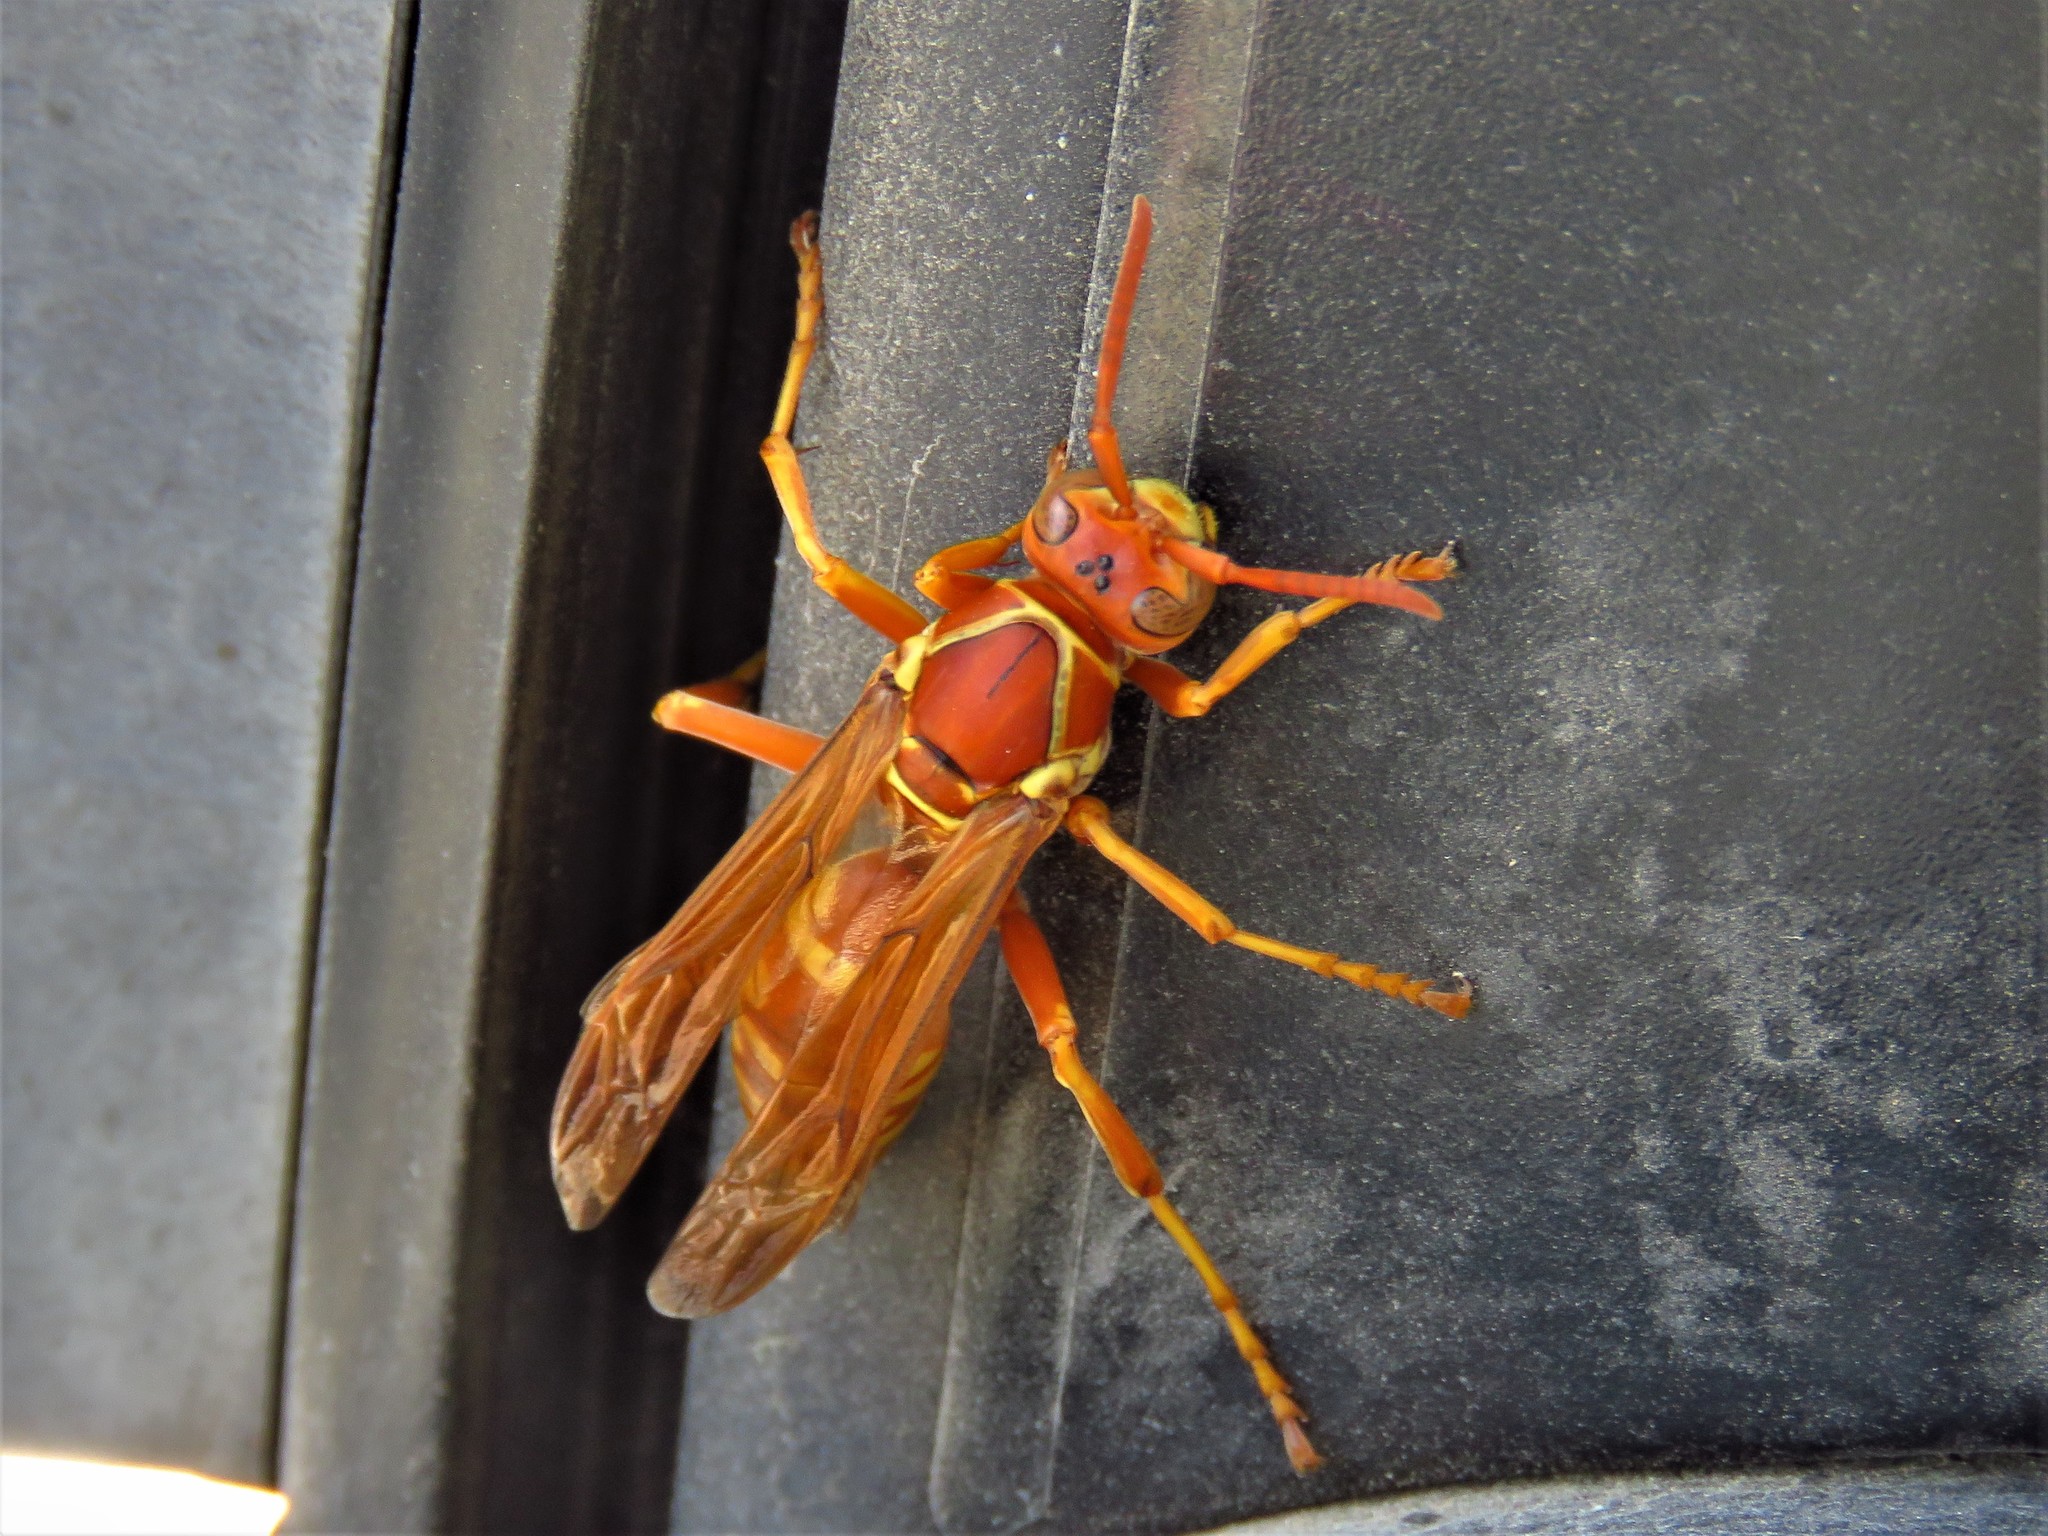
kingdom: Animalia
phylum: Arthropoda
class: Insecta
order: Hymenoptera
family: Eumenidae
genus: Polistes
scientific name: Polistes apachus
